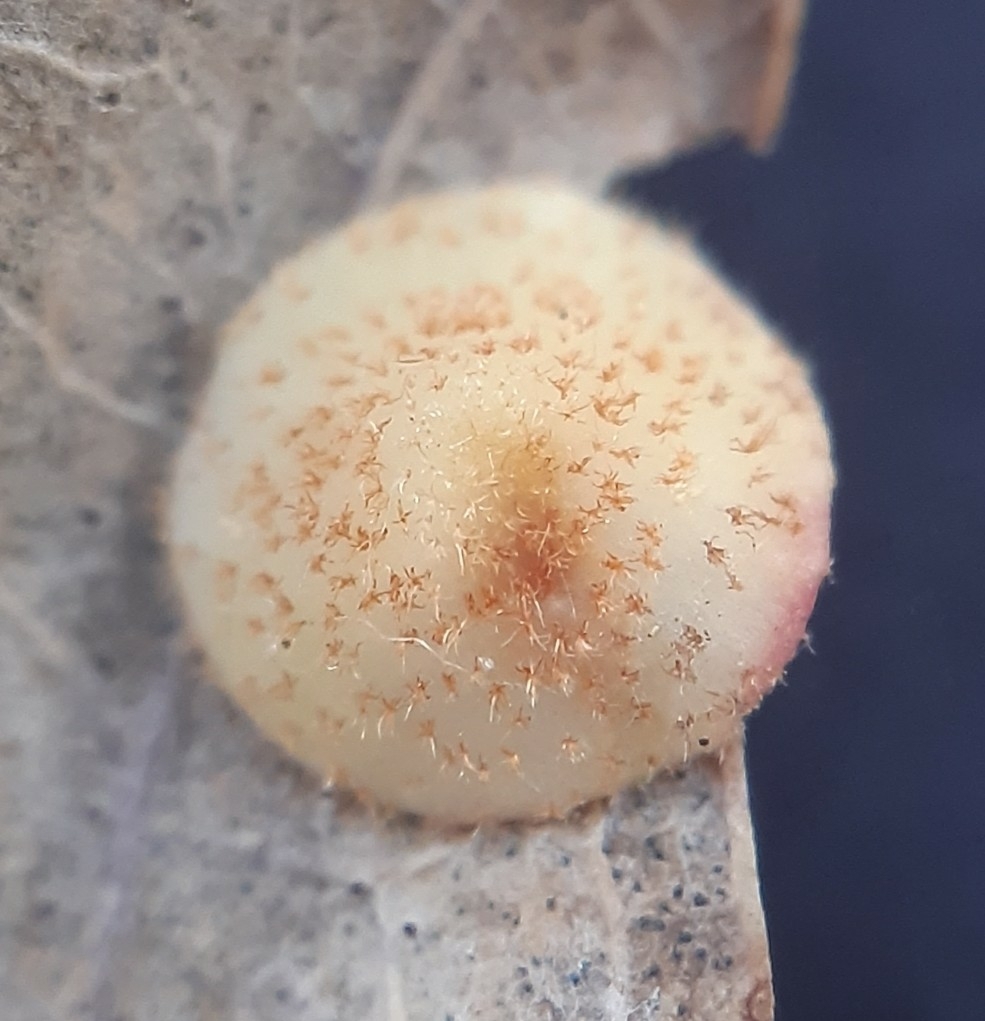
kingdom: Animalia
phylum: Arthropoda
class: Insecta
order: Hymenoptera
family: Cynipidae
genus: Neuroterus
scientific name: Neuroterus quercusbaccarum
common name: Common spangle gall
